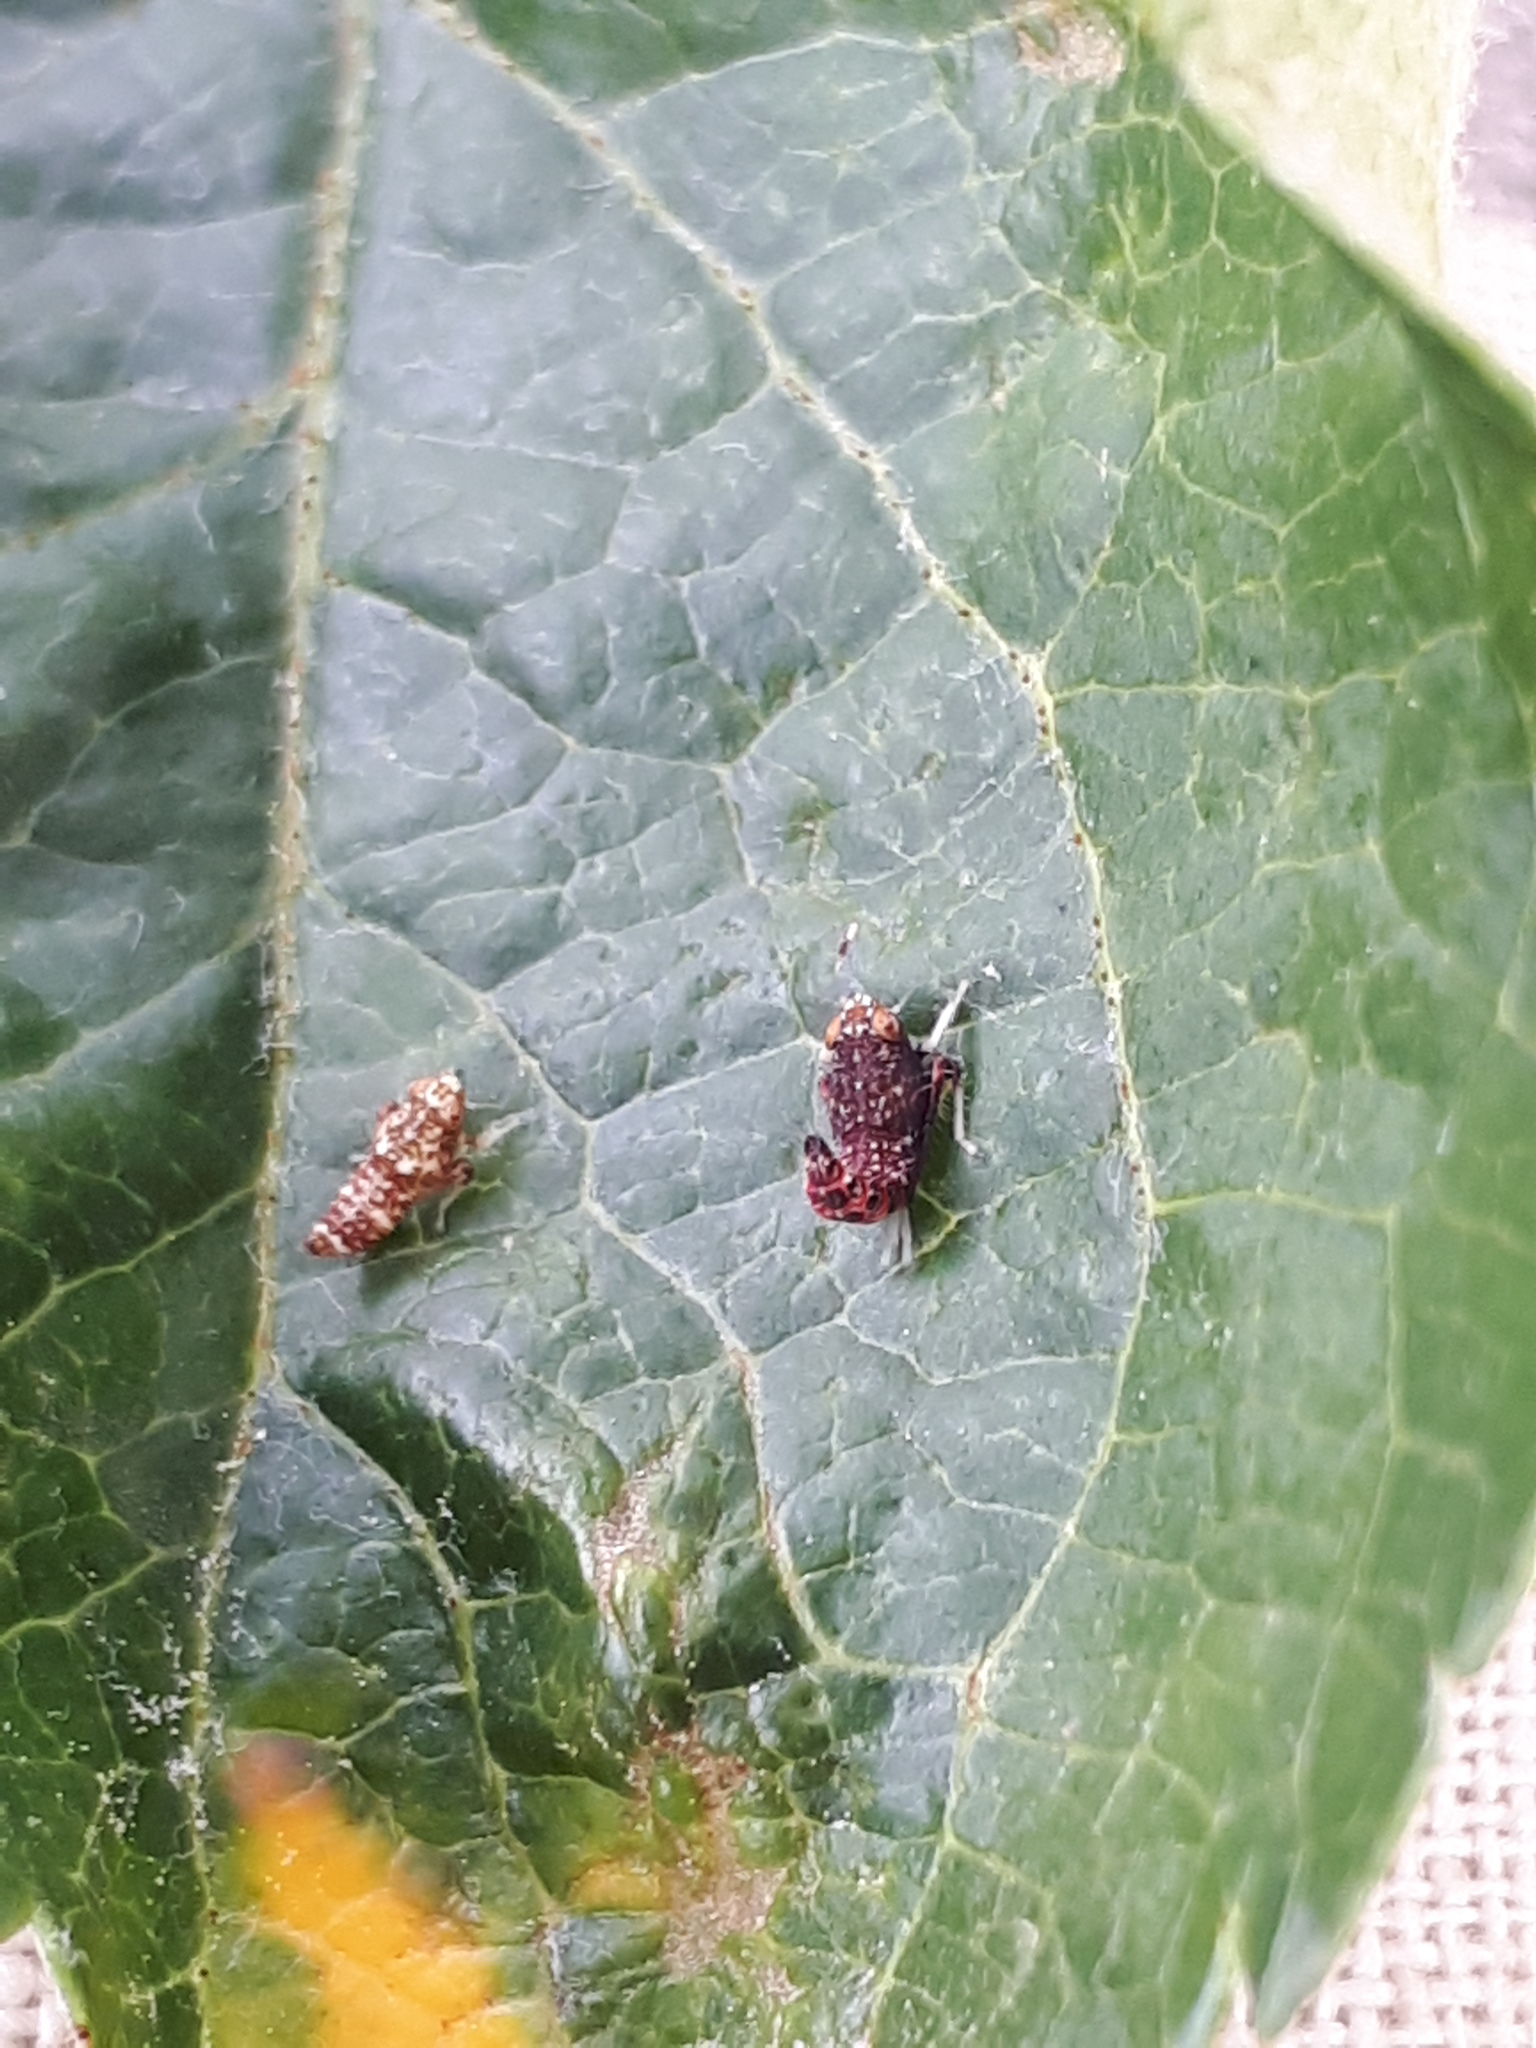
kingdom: Animalia
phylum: Arthropoda
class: Insecta
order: Hemiptera
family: Cicadellidae
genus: Orientus
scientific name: Orientus ishidae
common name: Japanese leafhopper
